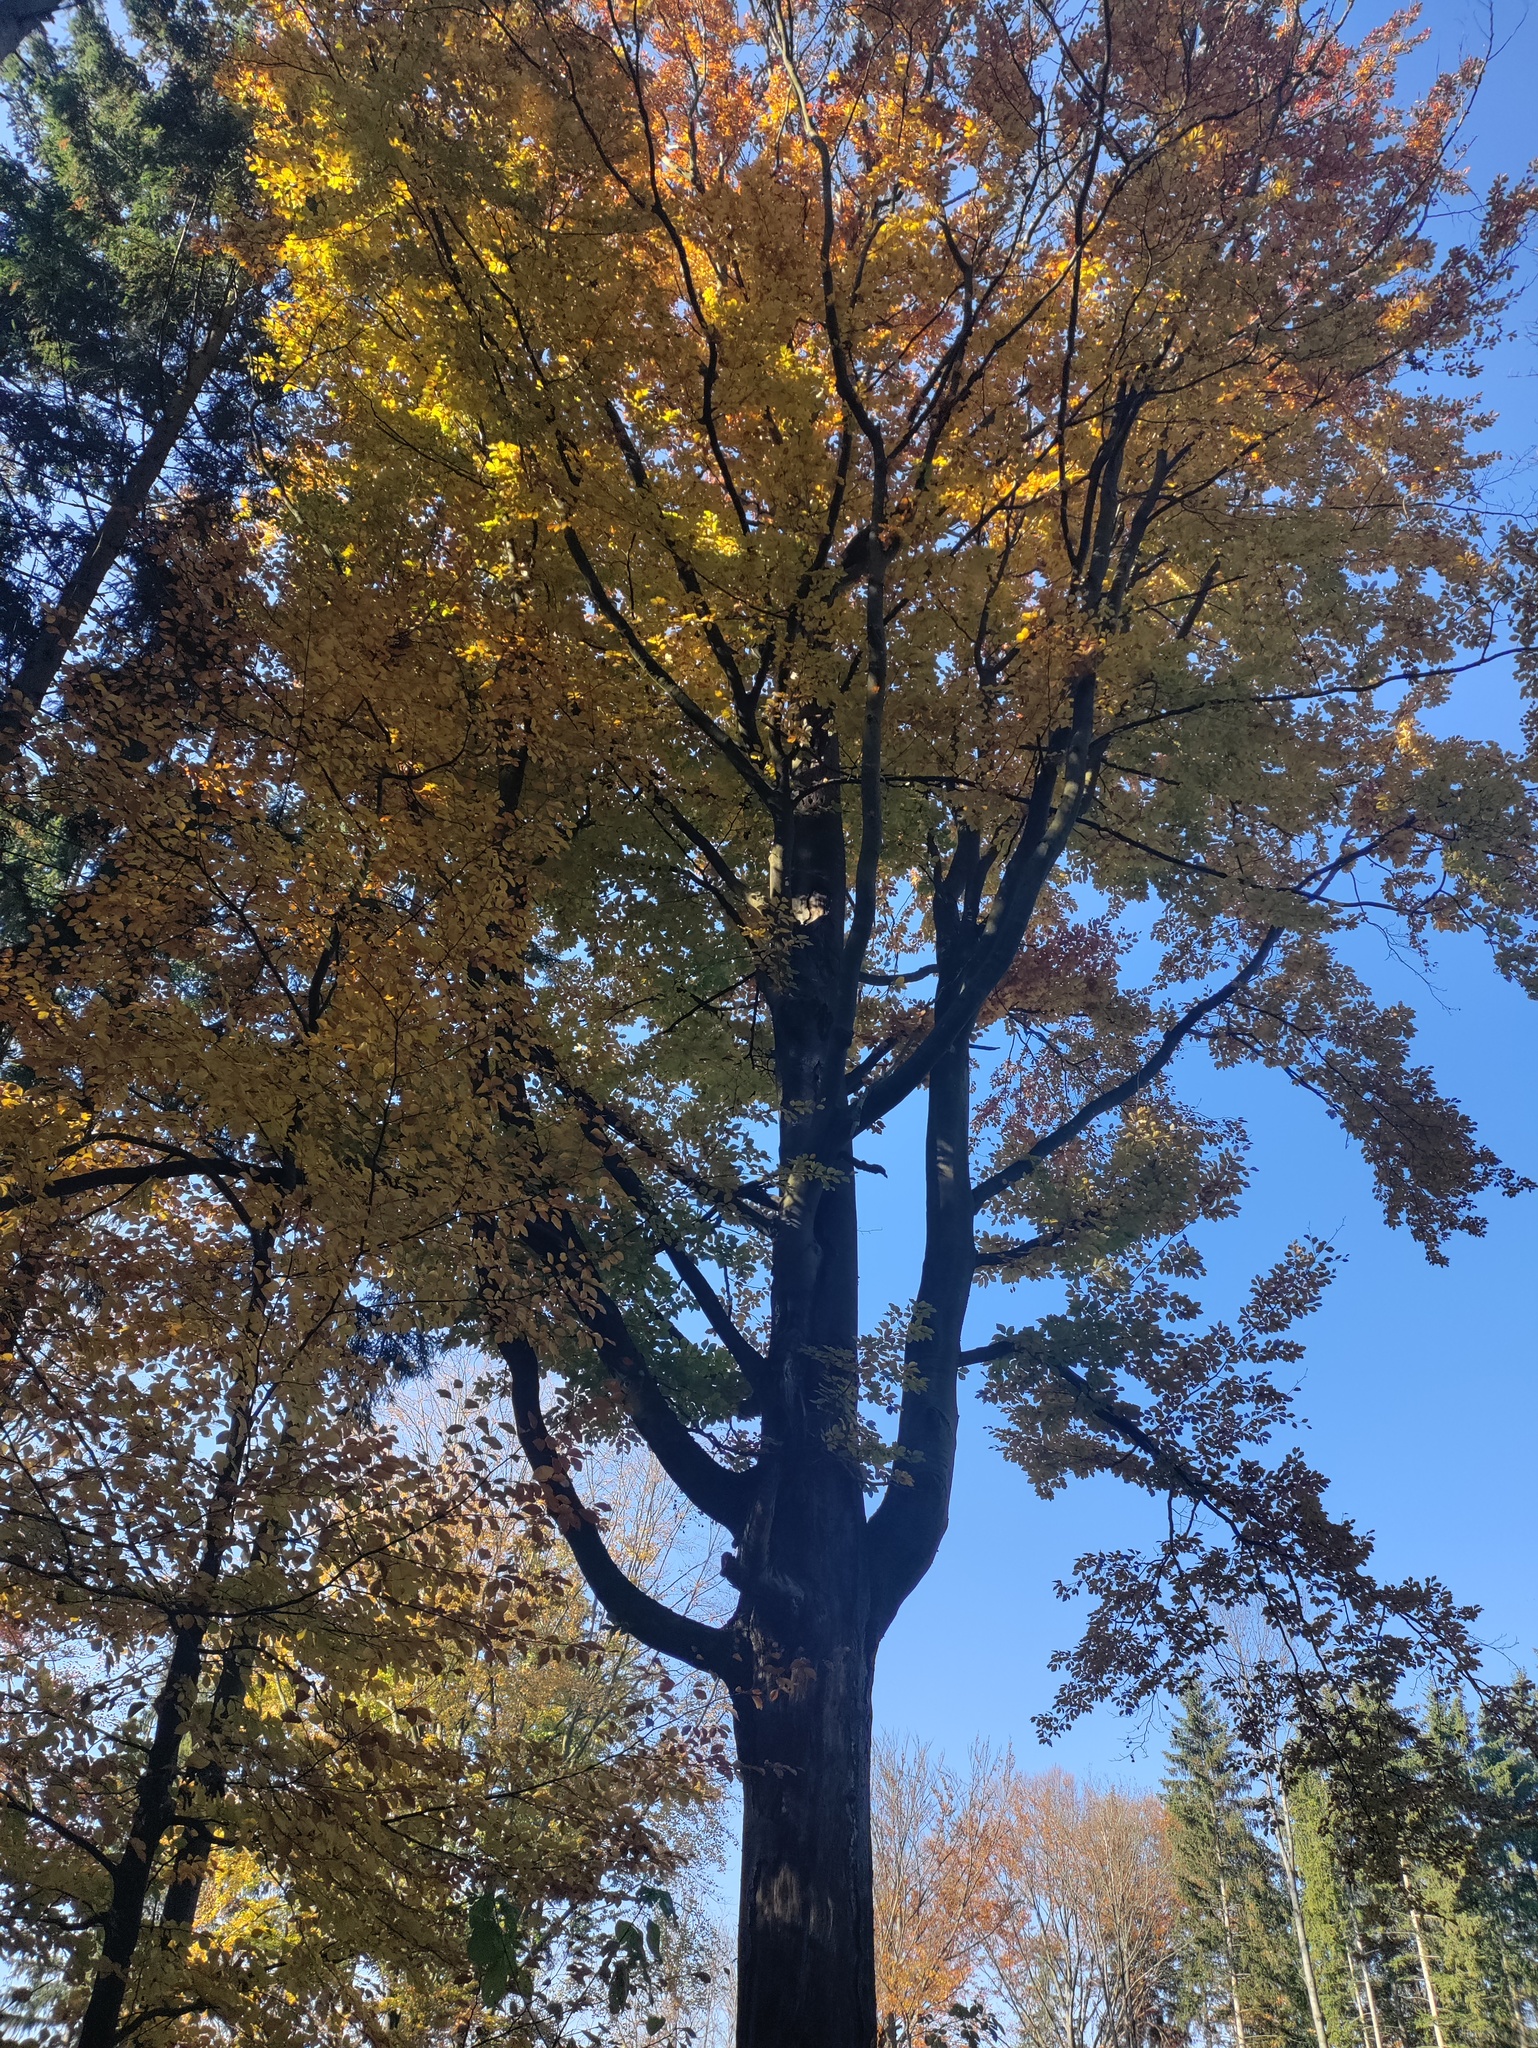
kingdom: Plantae
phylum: Tracheophyta
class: Magnoliopsida
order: Fagales
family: Fagaceae
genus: Fagus
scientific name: Fagus sylvatica
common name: Beech
